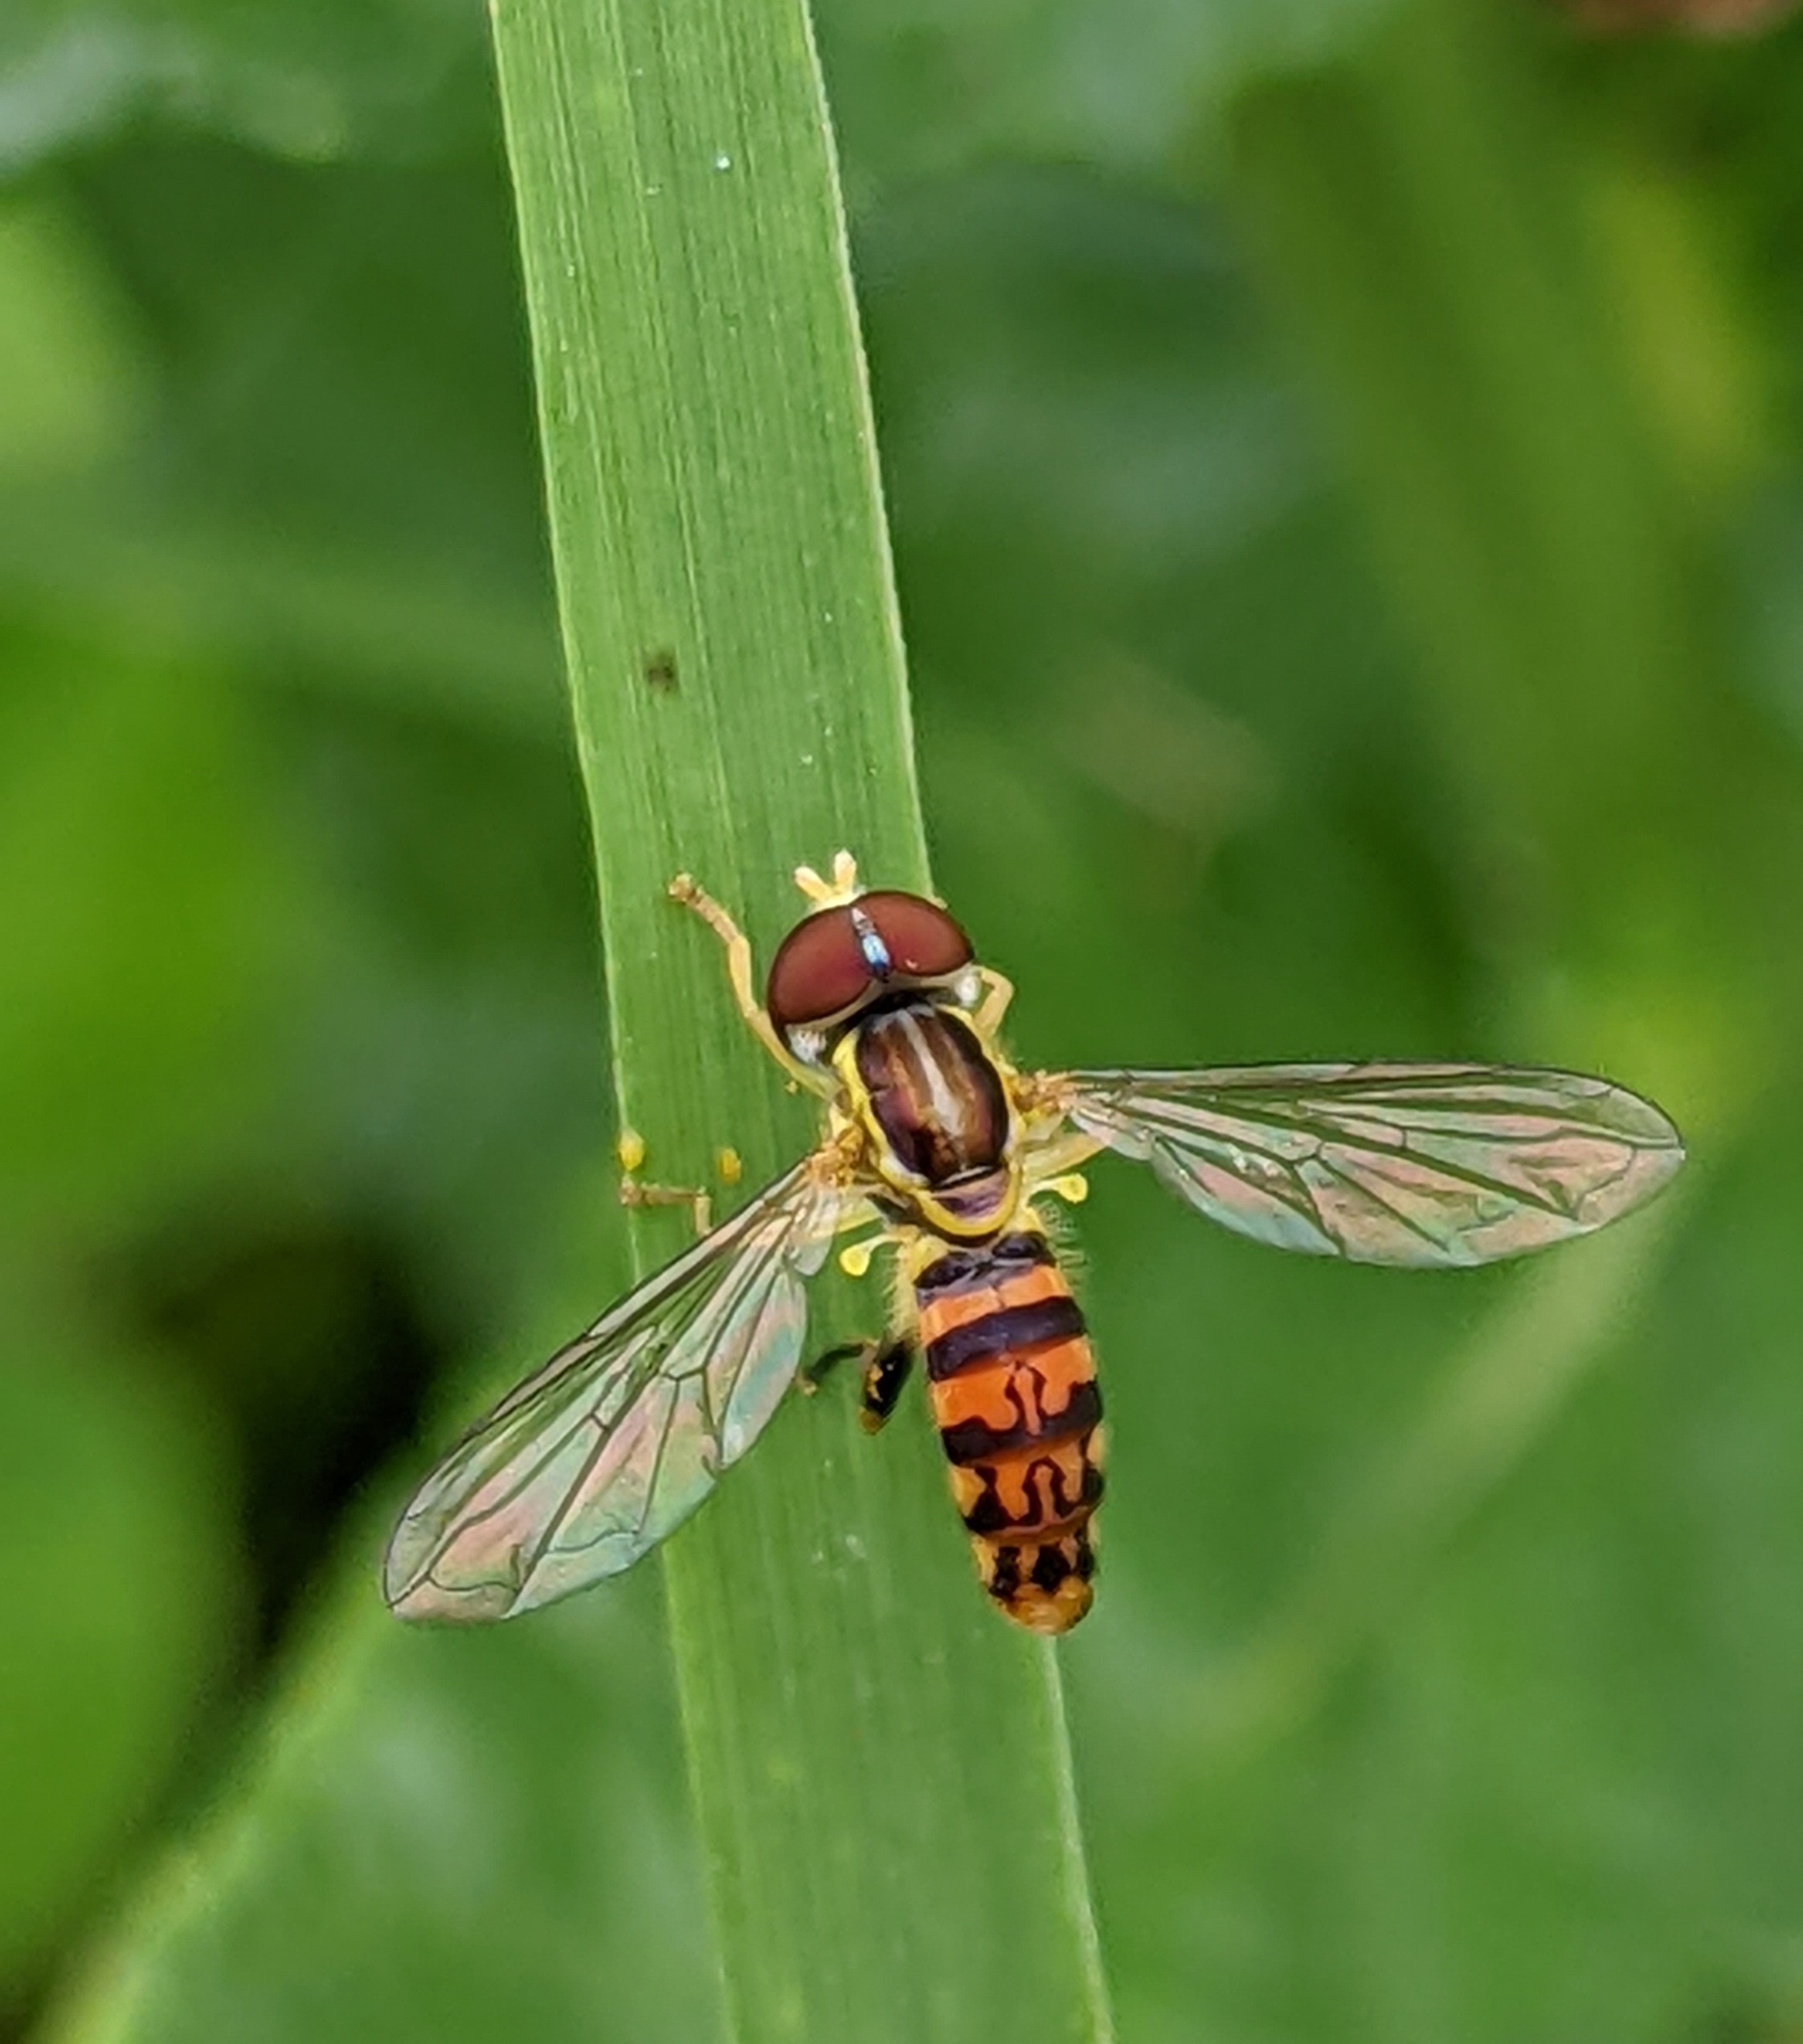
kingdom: Animalia
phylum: Arthropoda
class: Insecta
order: Diptera
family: Syrphidae
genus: Toxomerus
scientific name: Toxomerus geminatus
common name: Eastern calligrapher
